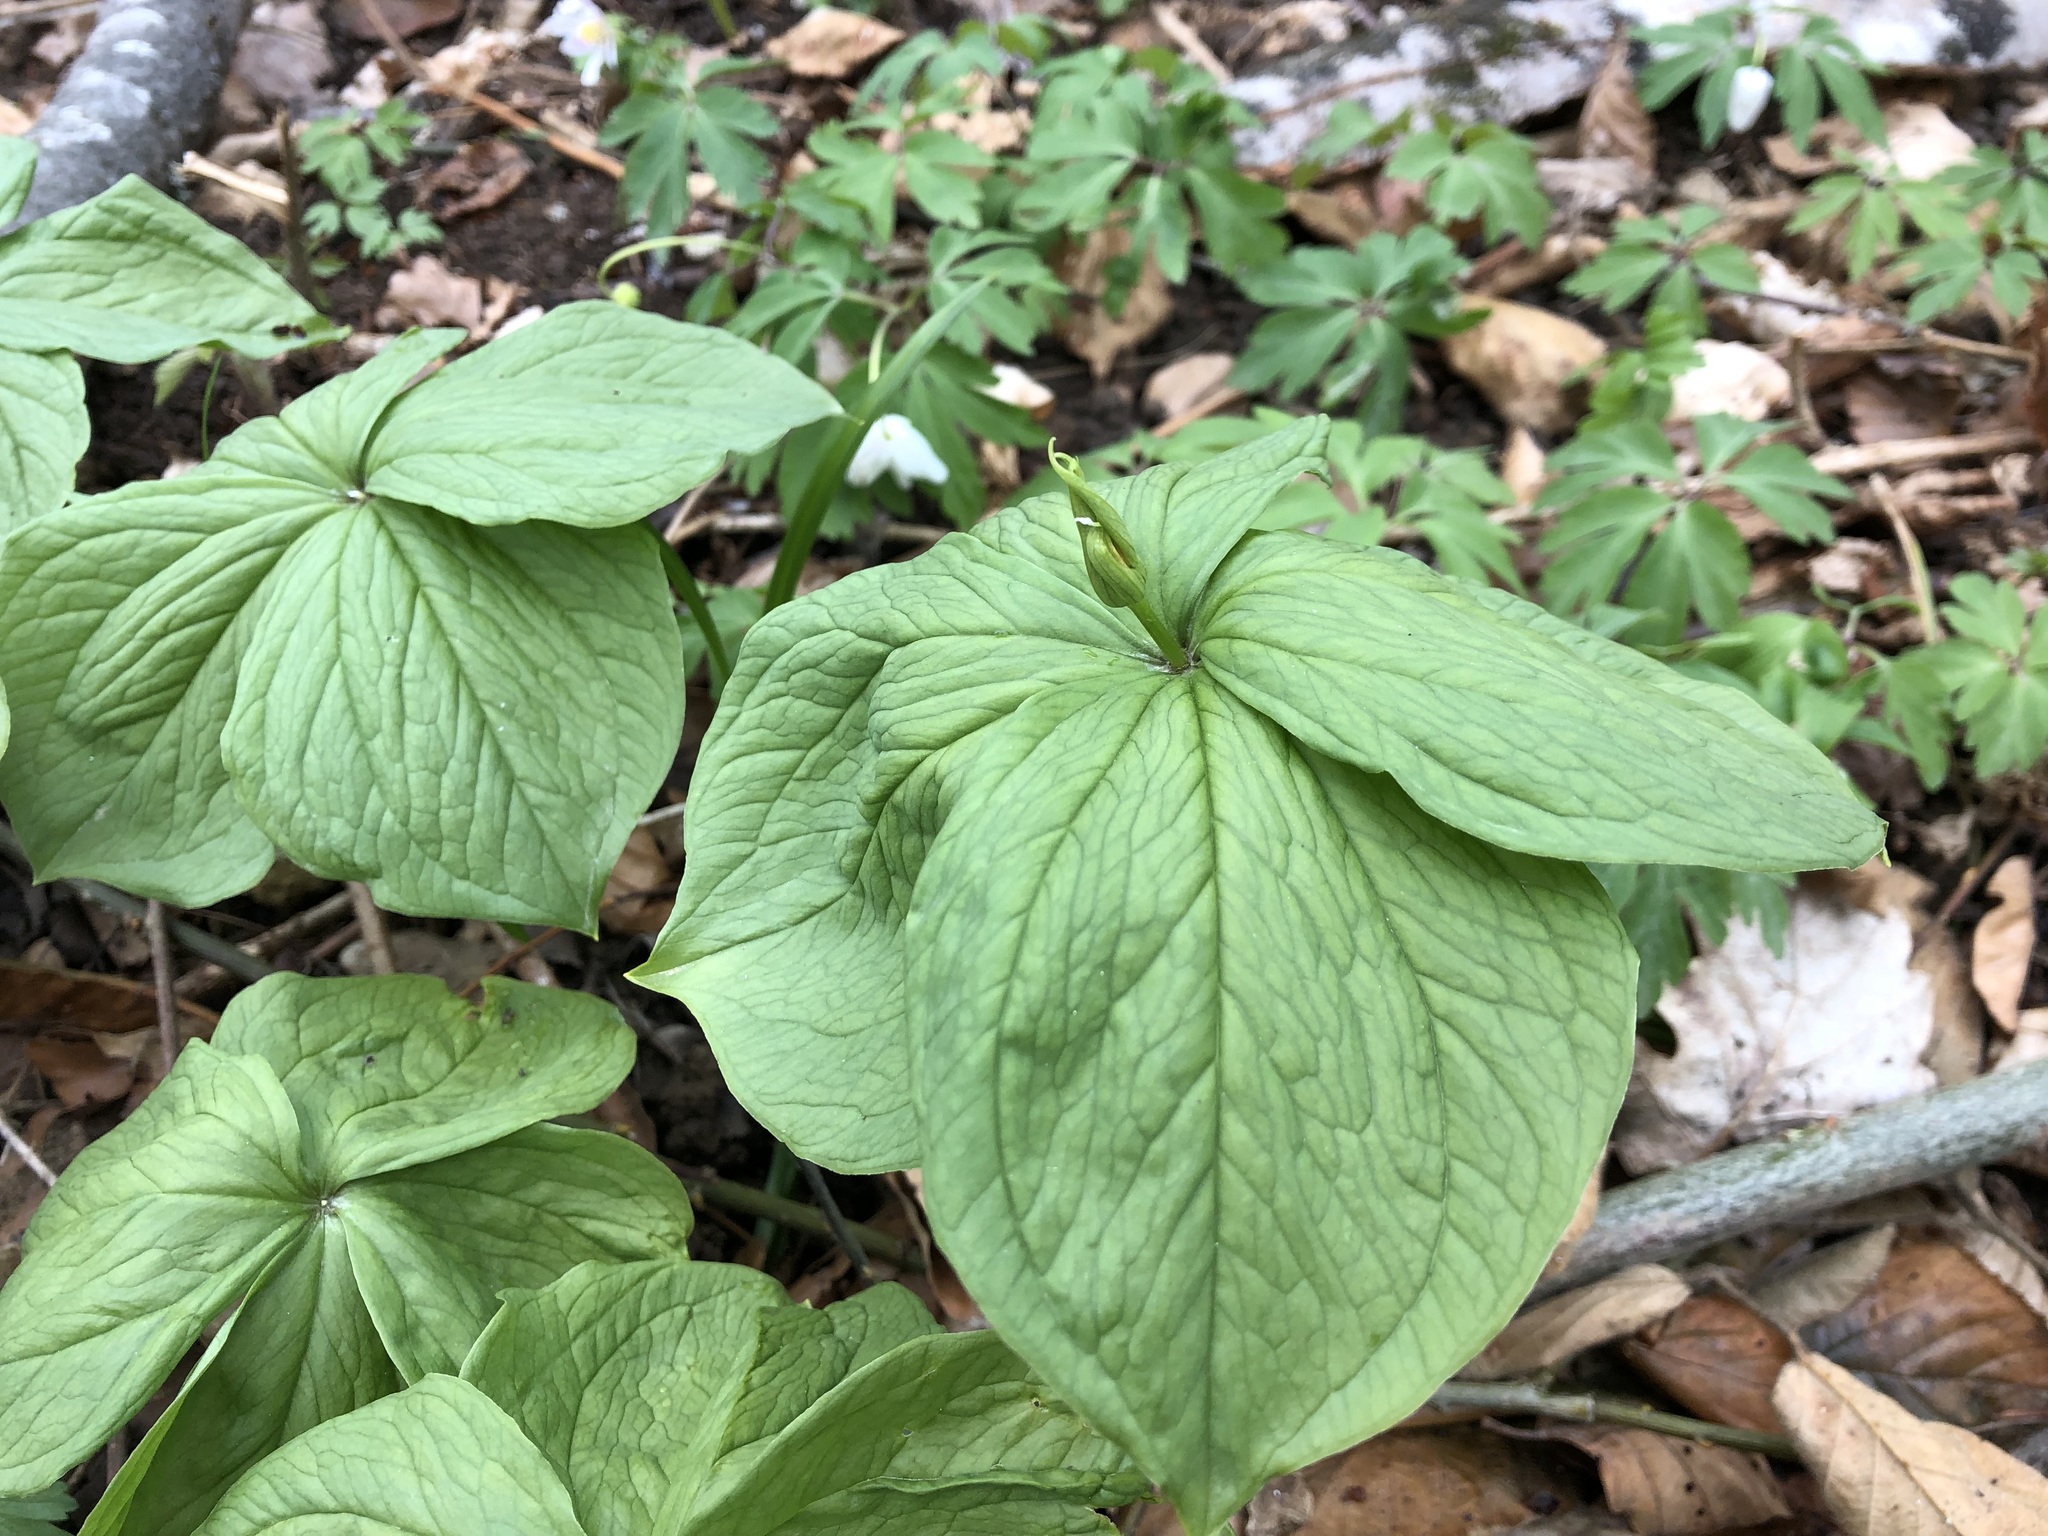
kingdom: Plantae
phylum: Tracheophyta
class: Liliopsida
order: Liliales
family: Melanthiaceae
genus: Paris
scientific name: Paris quadrifolia
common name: Herb-paris
